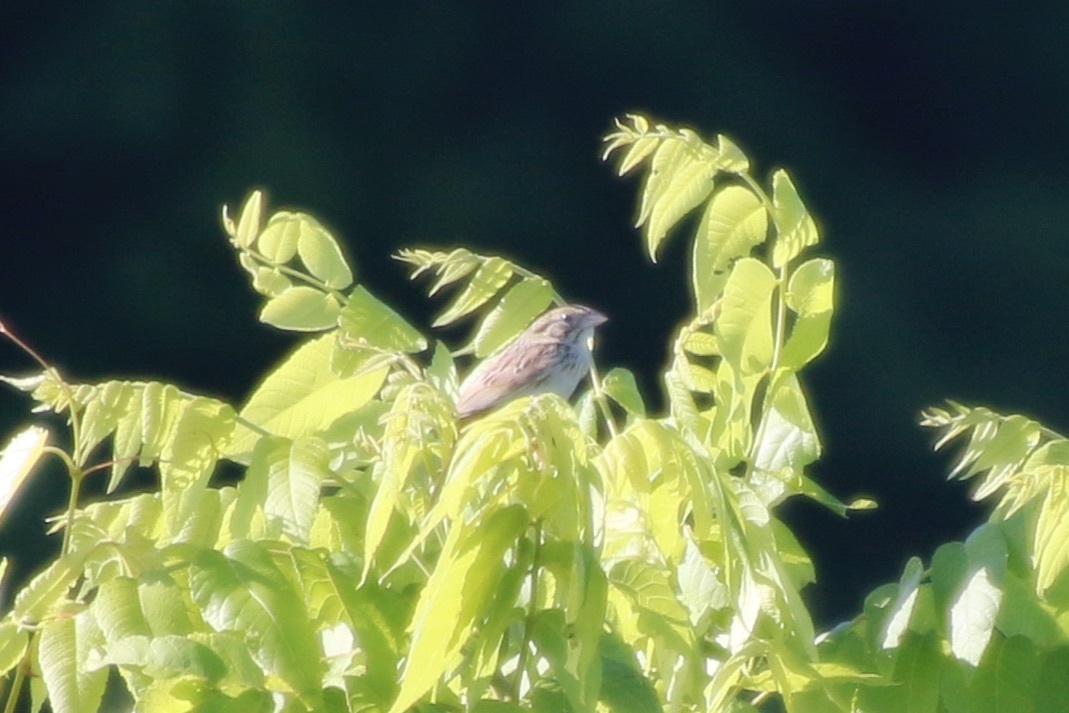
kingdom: Animalia
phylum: Chordata
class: Aves
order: Passeriformes
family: Passerellidae
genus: Centronyx
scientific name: Centronyx henslowii
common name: Henslow's sparrow
